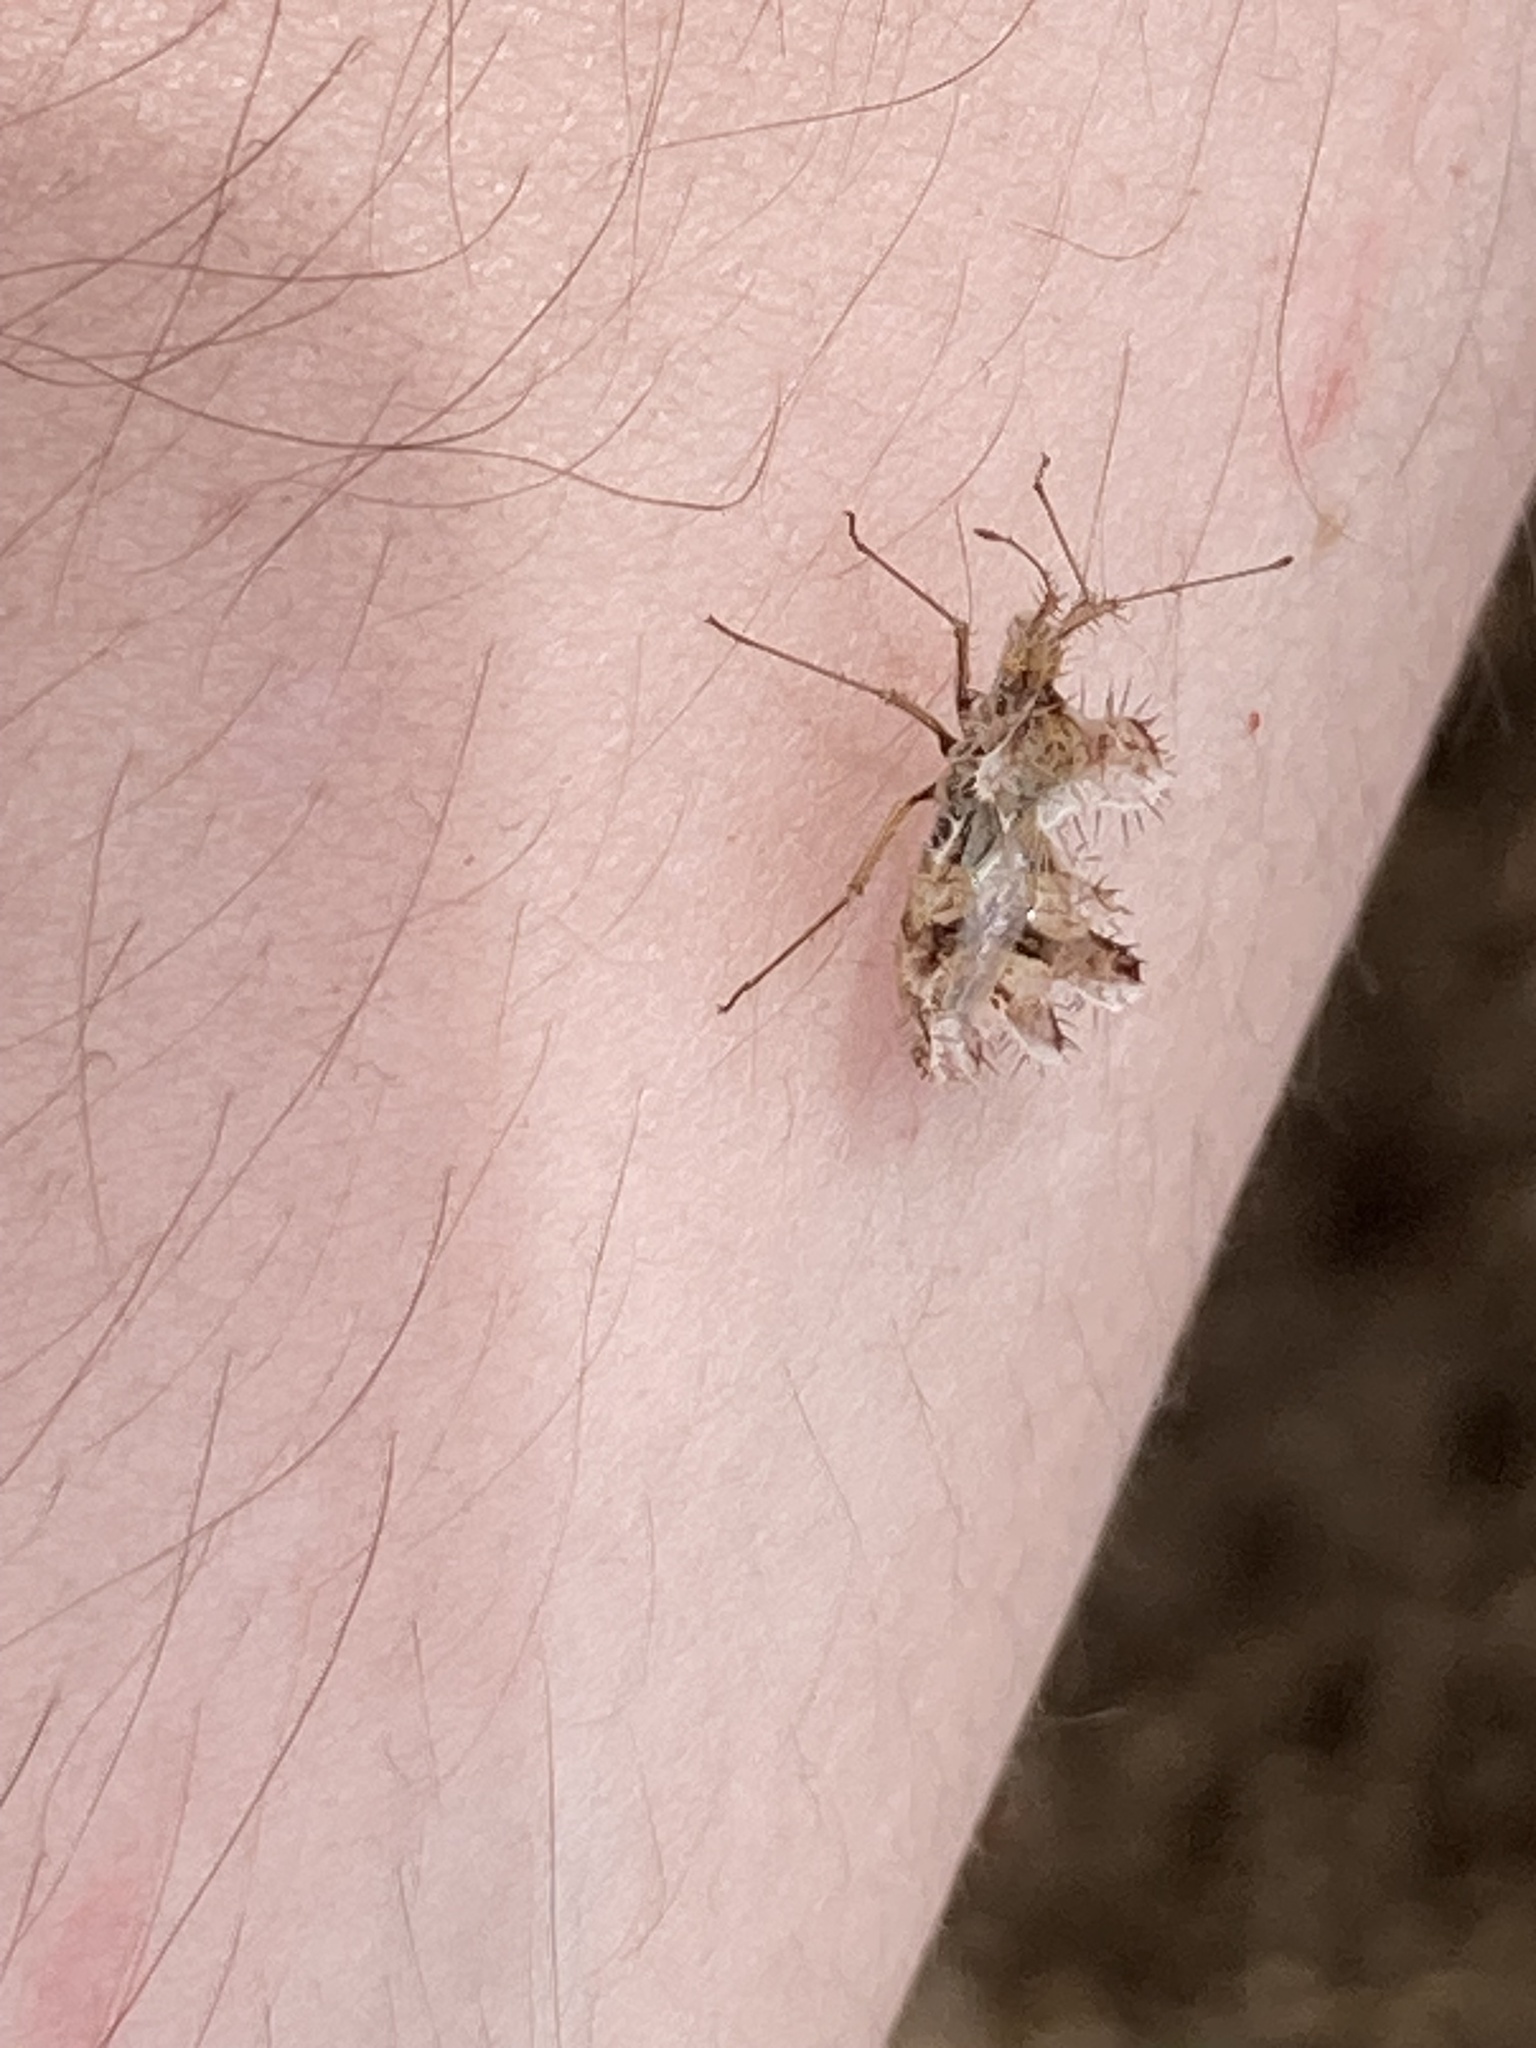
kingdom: Animalia
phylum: Arthropoda
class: Insecta
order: Hemiptera
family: Coreidae
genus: Phyllomorpha
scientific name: Phyllomorpha laciniata
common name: Golden egg bug
